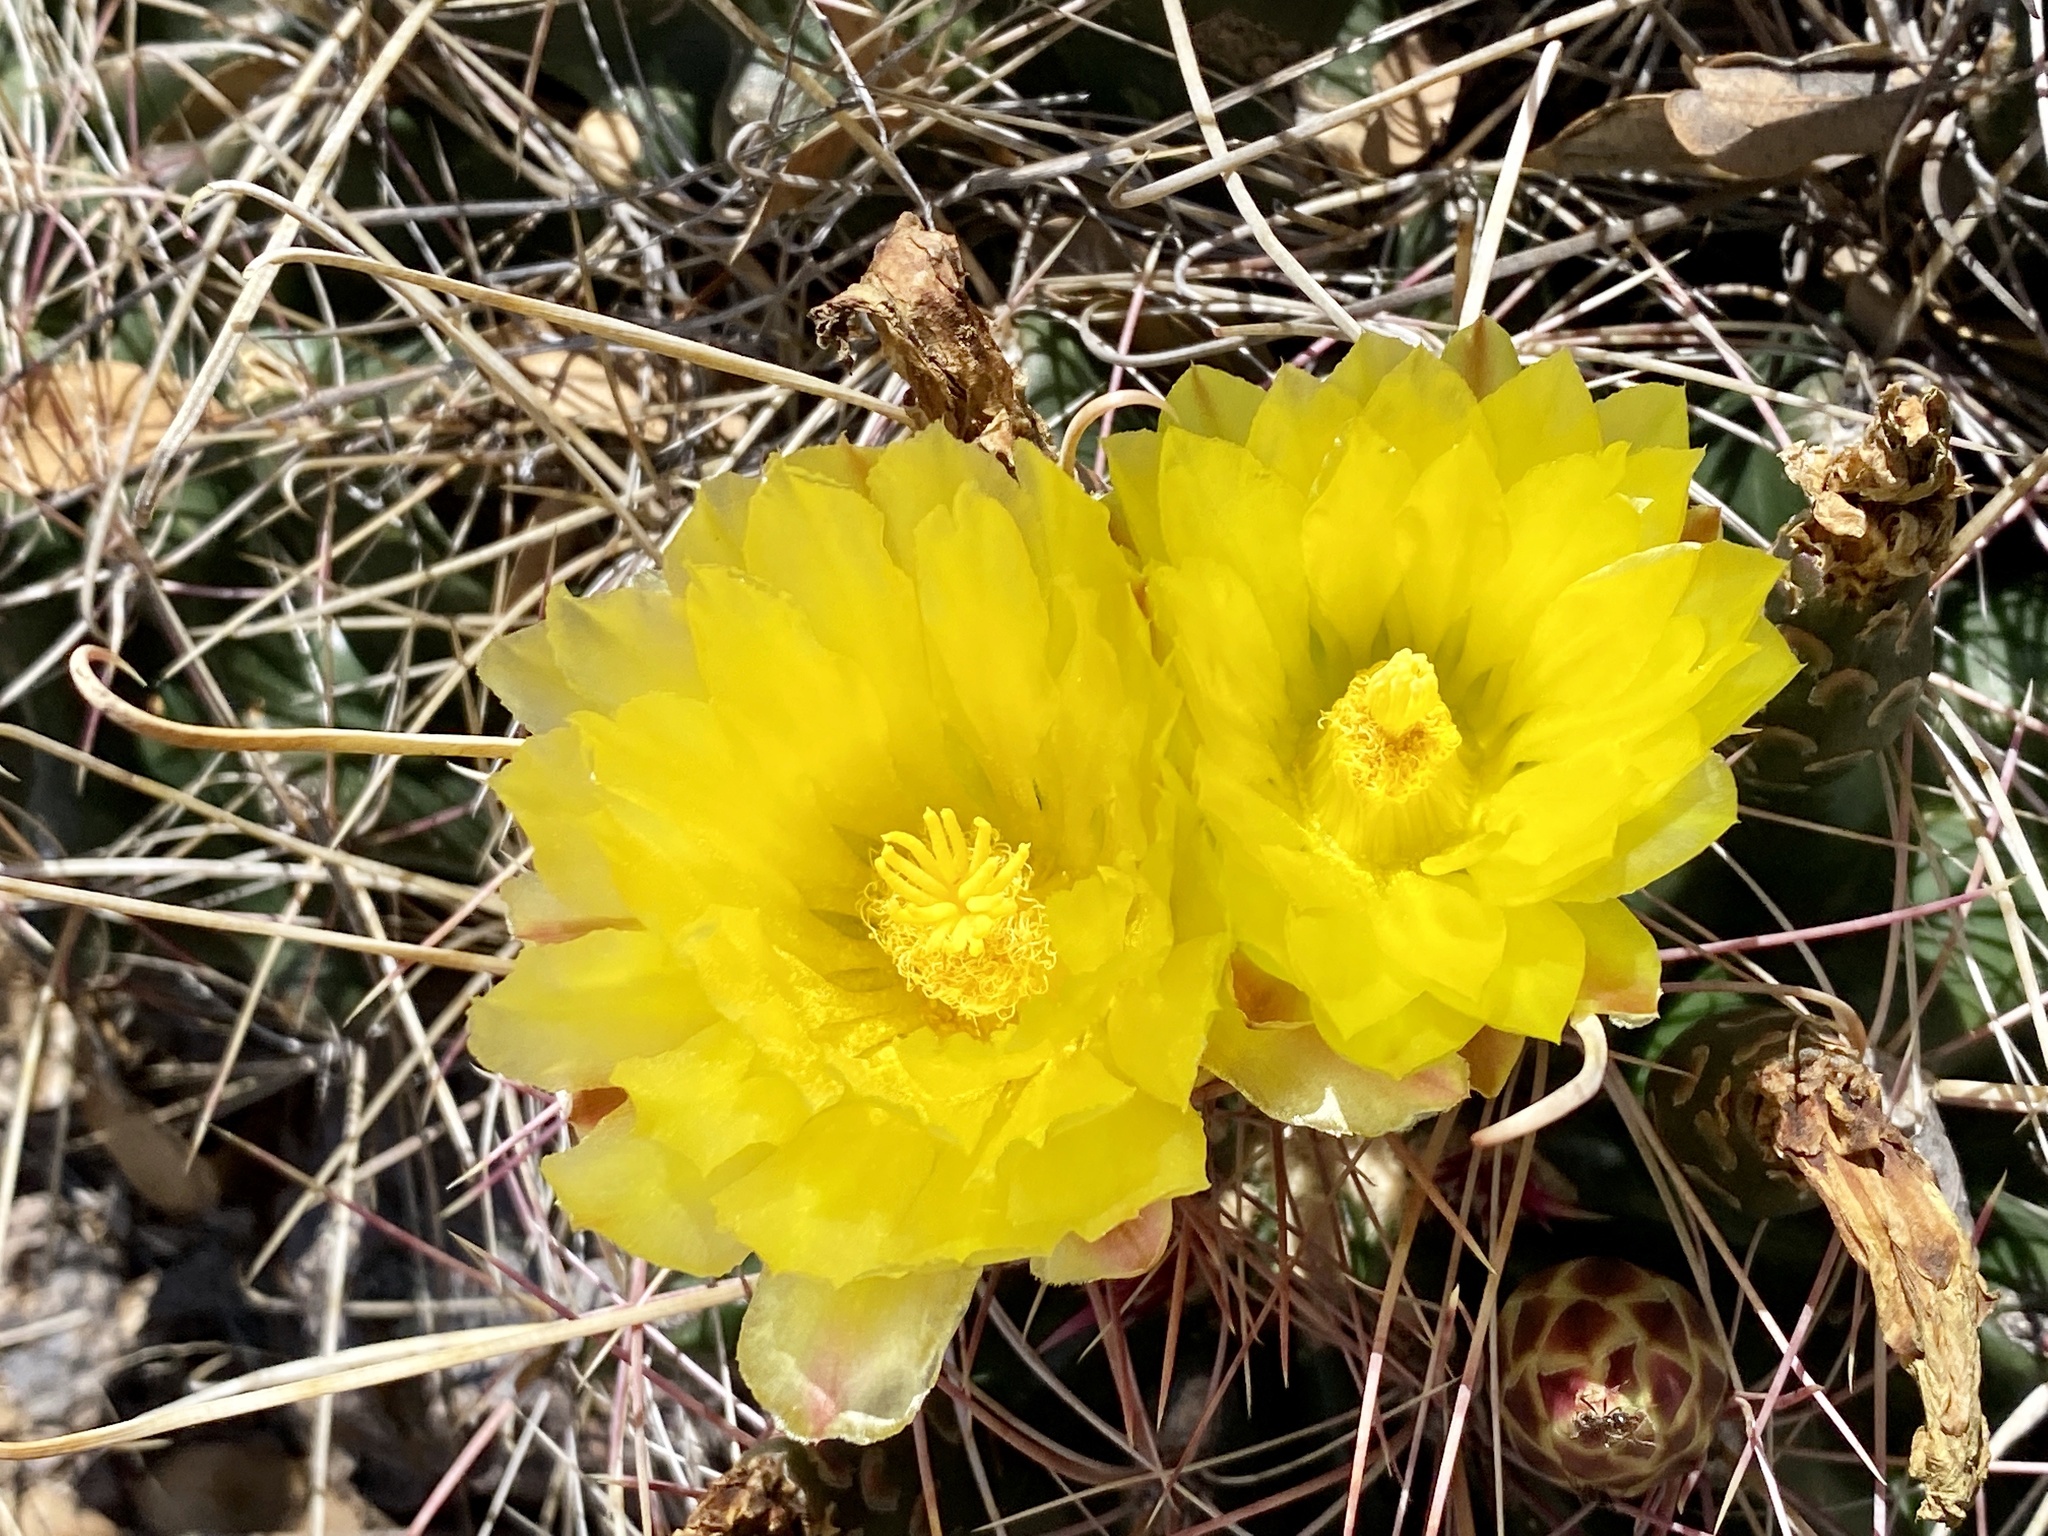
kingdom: Plantae
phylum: Tracheophyta
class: Magnoliopsida
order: Caryophyllales
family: Cactaceae
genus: Bisnaga
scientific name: Bisnaga hamatacantha
